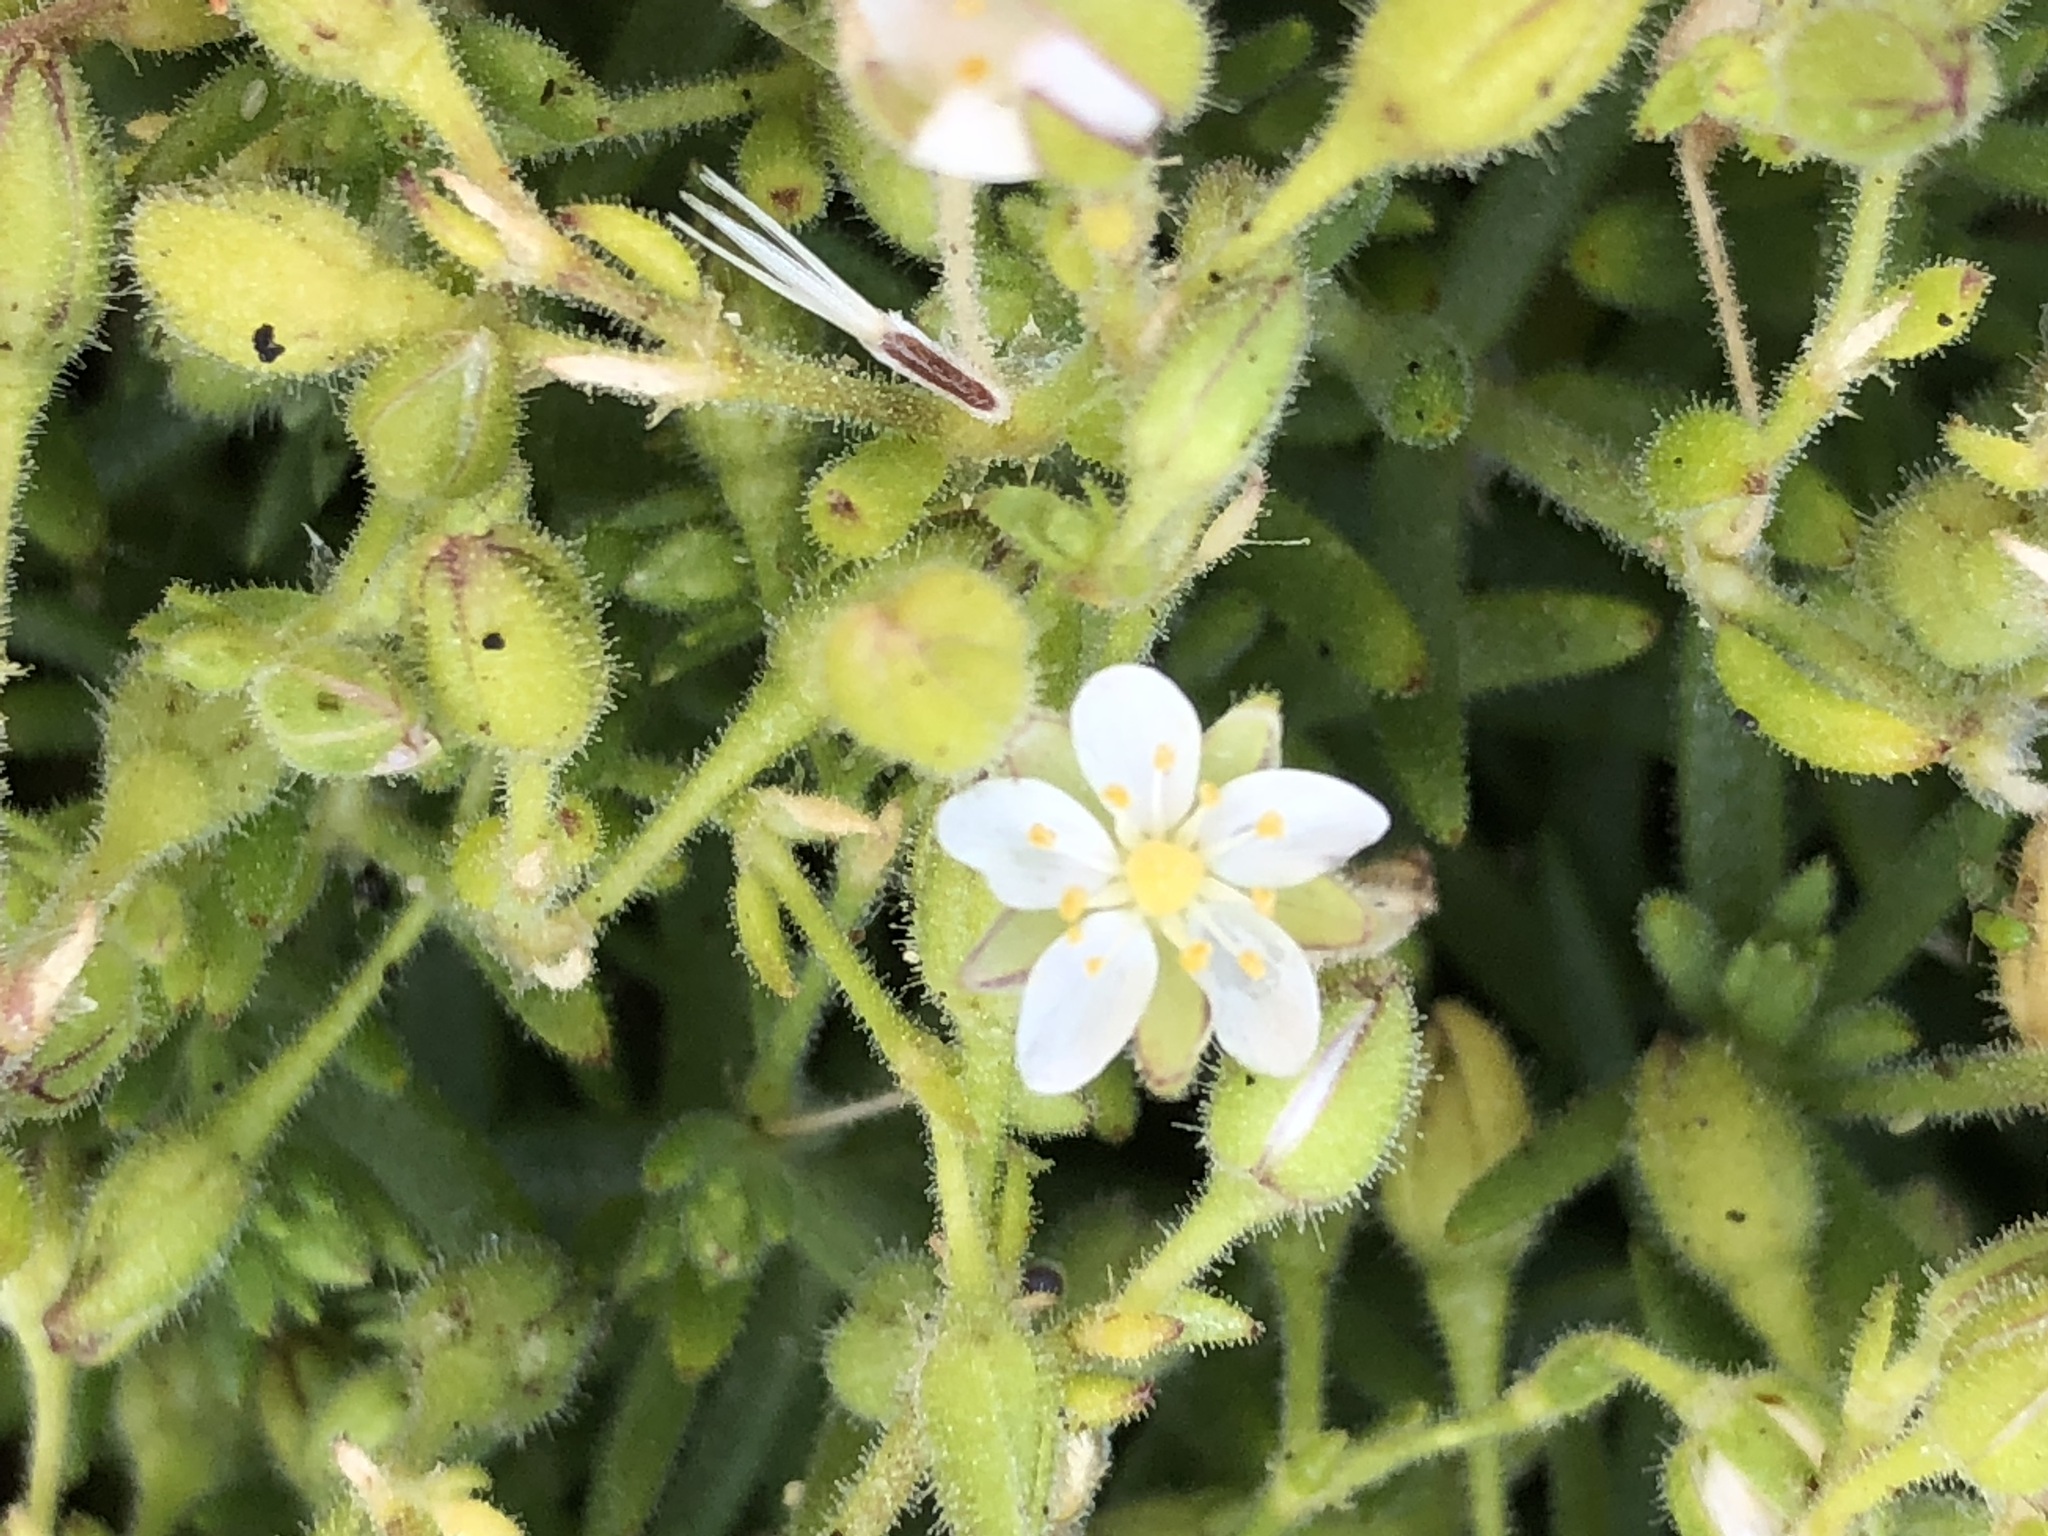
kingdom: Plantae
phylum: Tracheophyta
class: Magnoliopsida
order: Caryophyllales
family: Caryophyllaceae
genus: Spergularia
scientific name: Spergularia media
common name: Greater sea-spurrey
